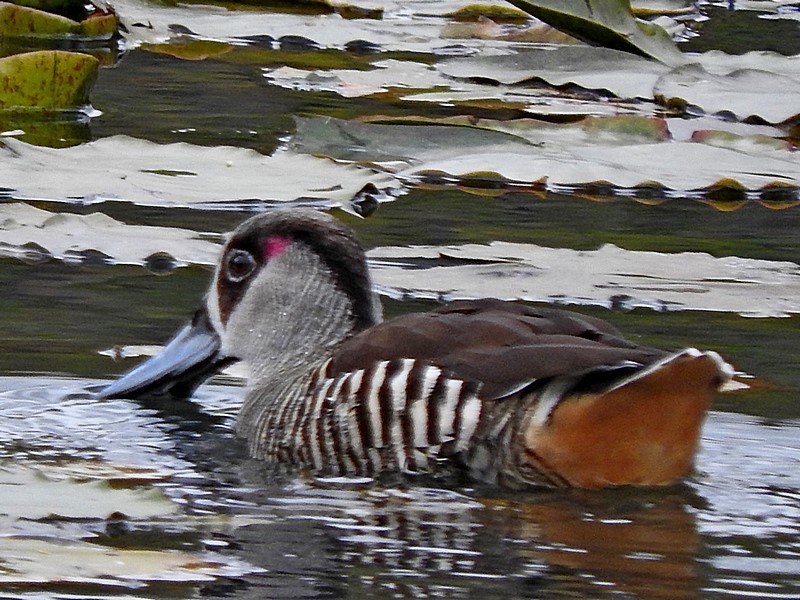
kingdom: Animalia
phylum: Chordata
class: Aves
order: Anseriformes
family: Anatidae
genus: Malacorhynchus
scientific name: Malacorhynchus membranaceus
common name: Pink-eared duck
